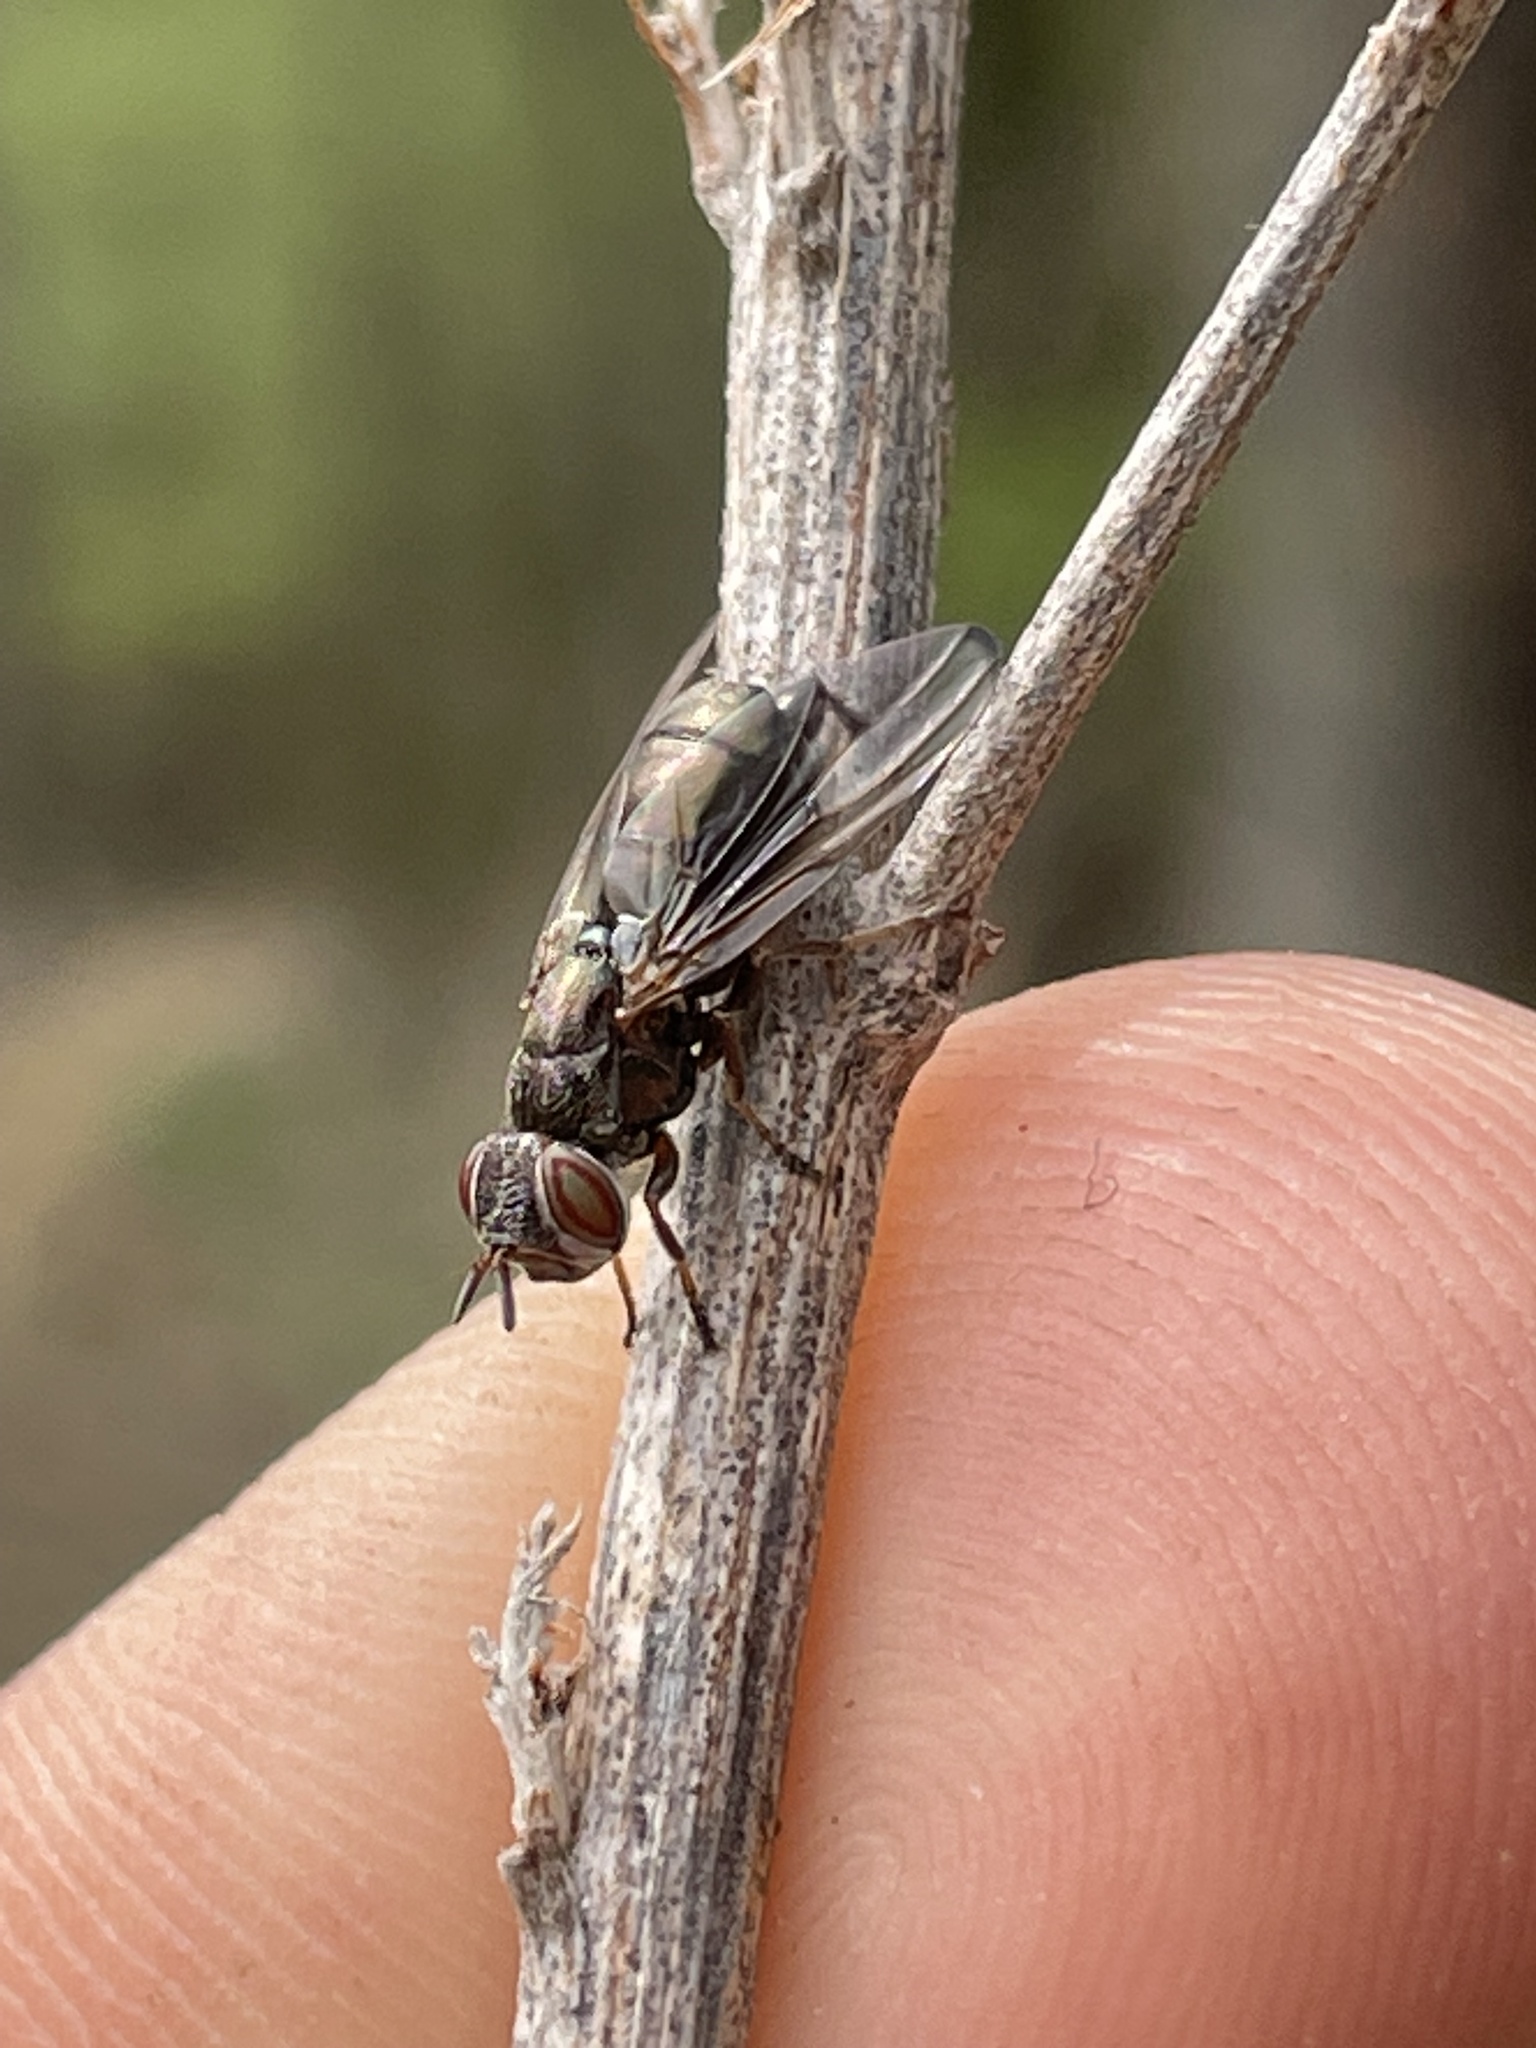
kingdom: Animalia
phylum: Arthropoda
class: Insecta
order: Diptera
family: Platystomatidae
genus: Senopterina
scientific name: Senopterina foxleei
